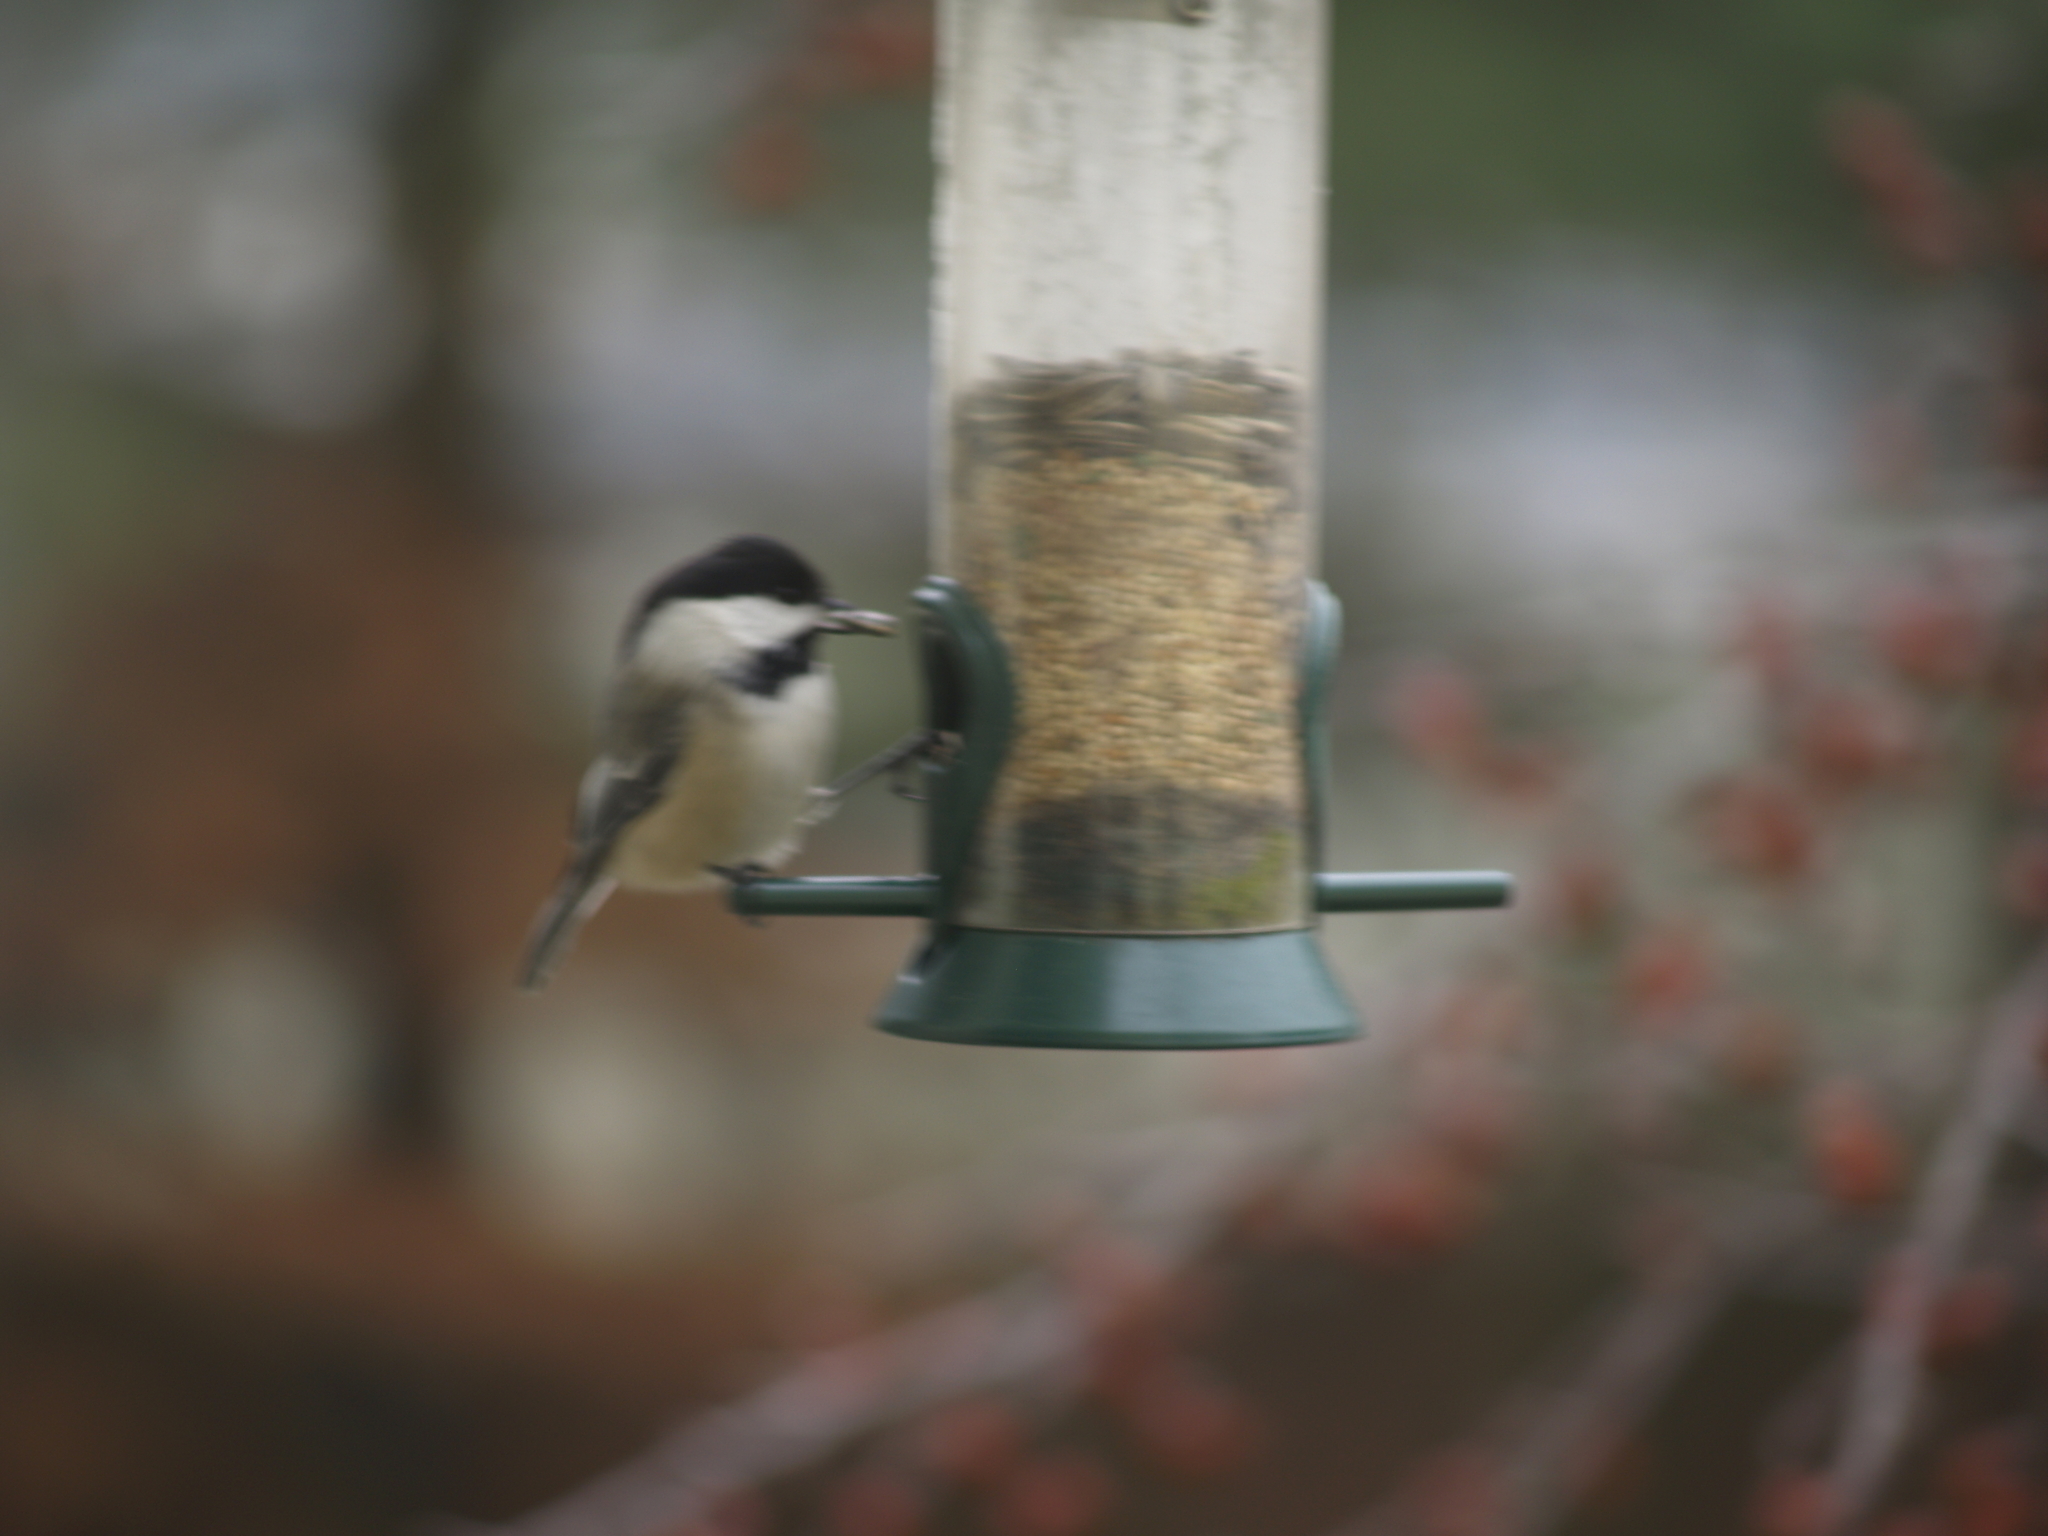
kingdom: Animalia
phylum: Chordata
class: Aves
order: Passeriformes
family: Paridae
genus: Poecile
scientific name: Poecile atricapillus
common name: Black-capped chickadee
